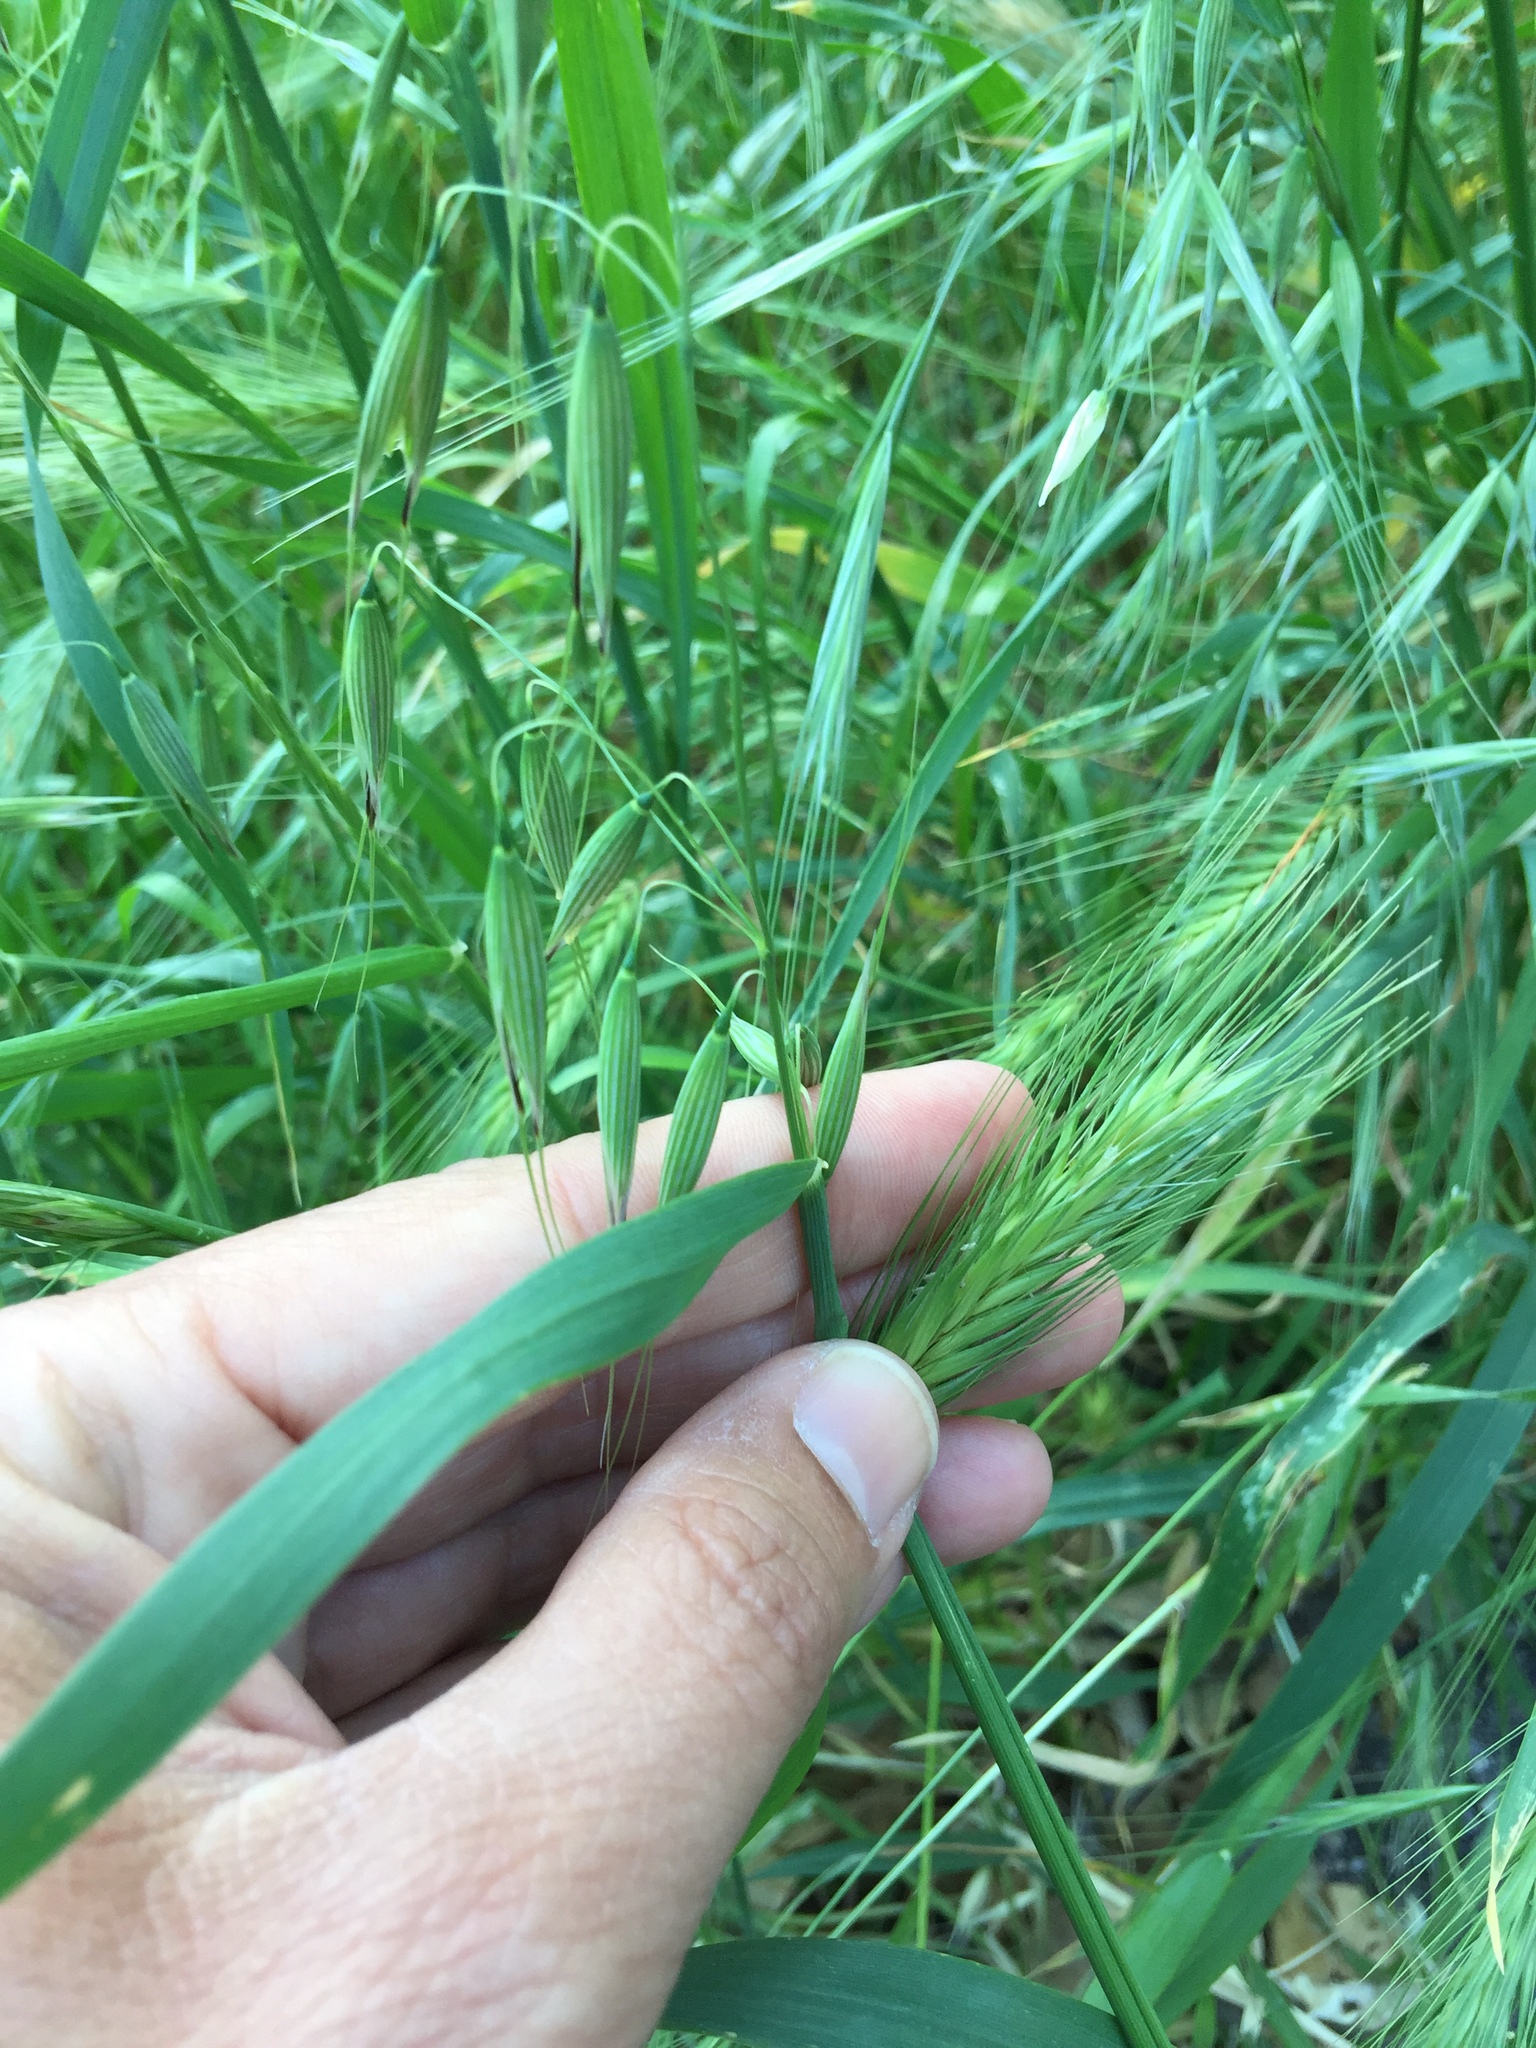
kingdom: Plantae
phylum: Tracheophyta
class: Liliopsida
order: Poales
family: Poaceae
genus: Hordeum
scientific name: Hordeum murinum
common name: Wall barley
